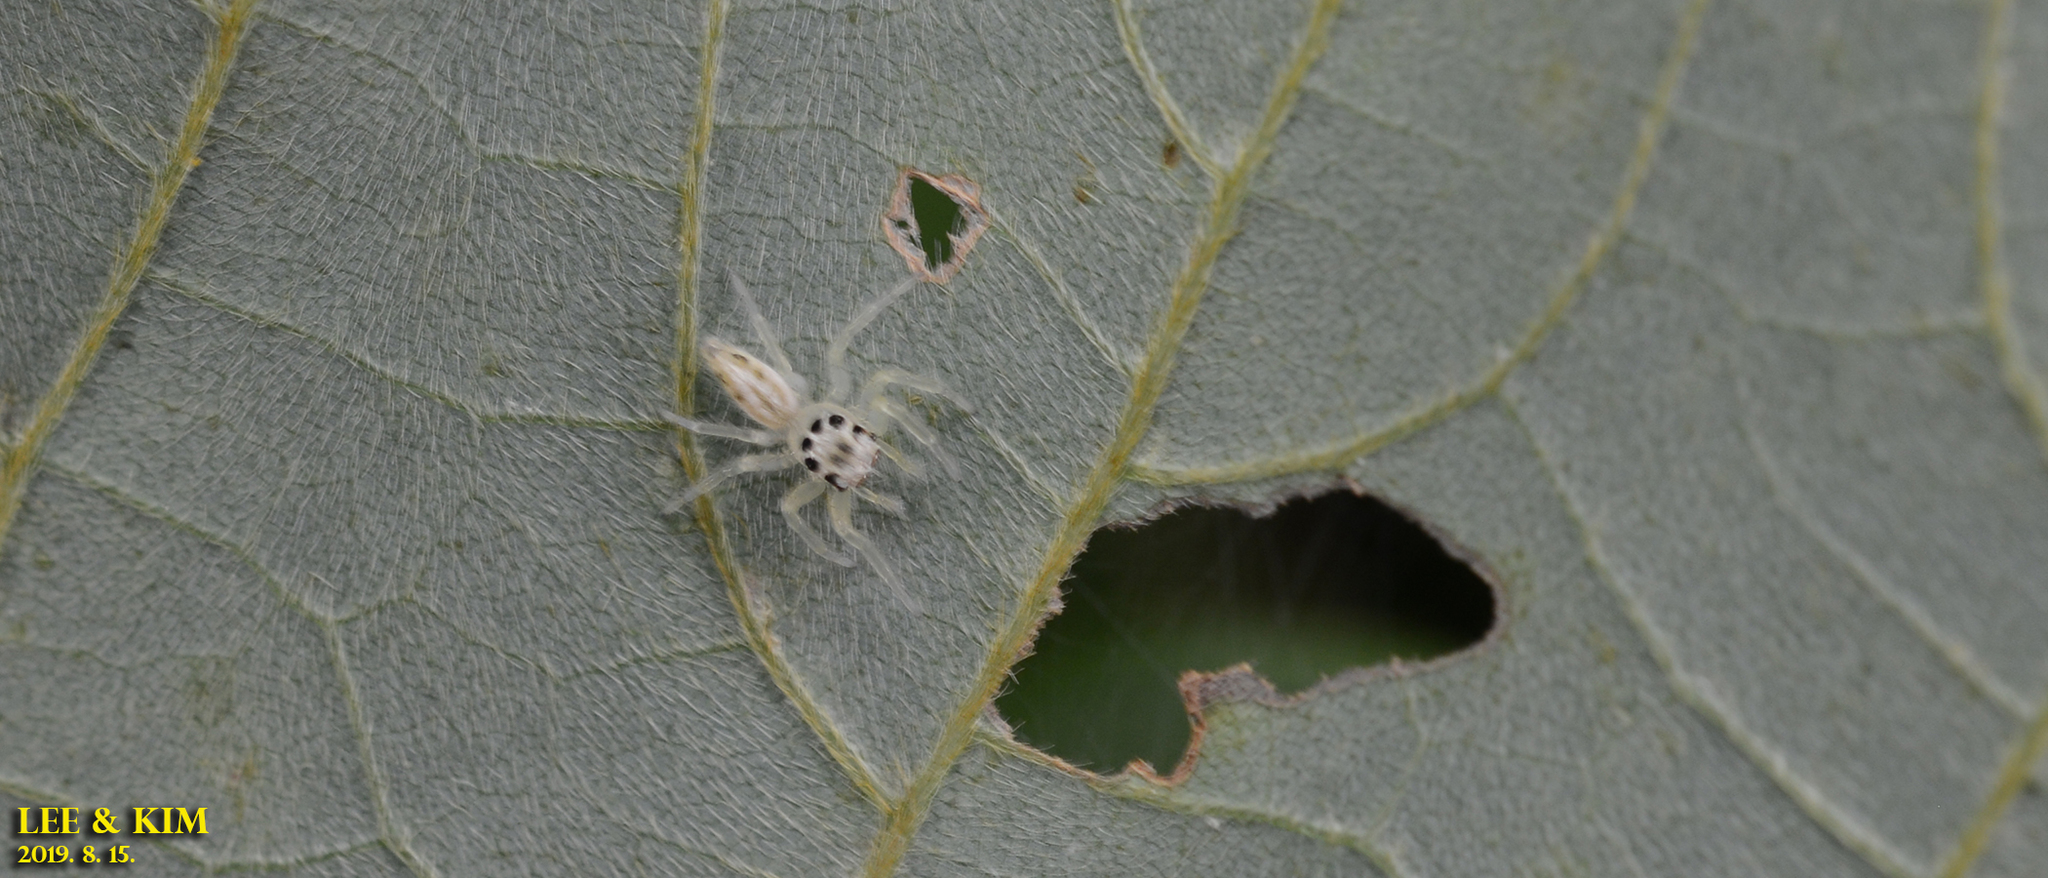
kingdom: Animalia
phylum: Arthropoda
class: Arachnida
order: Araneae
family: Salticidae
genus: Telamonia
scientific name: Telamonia vlijmi
